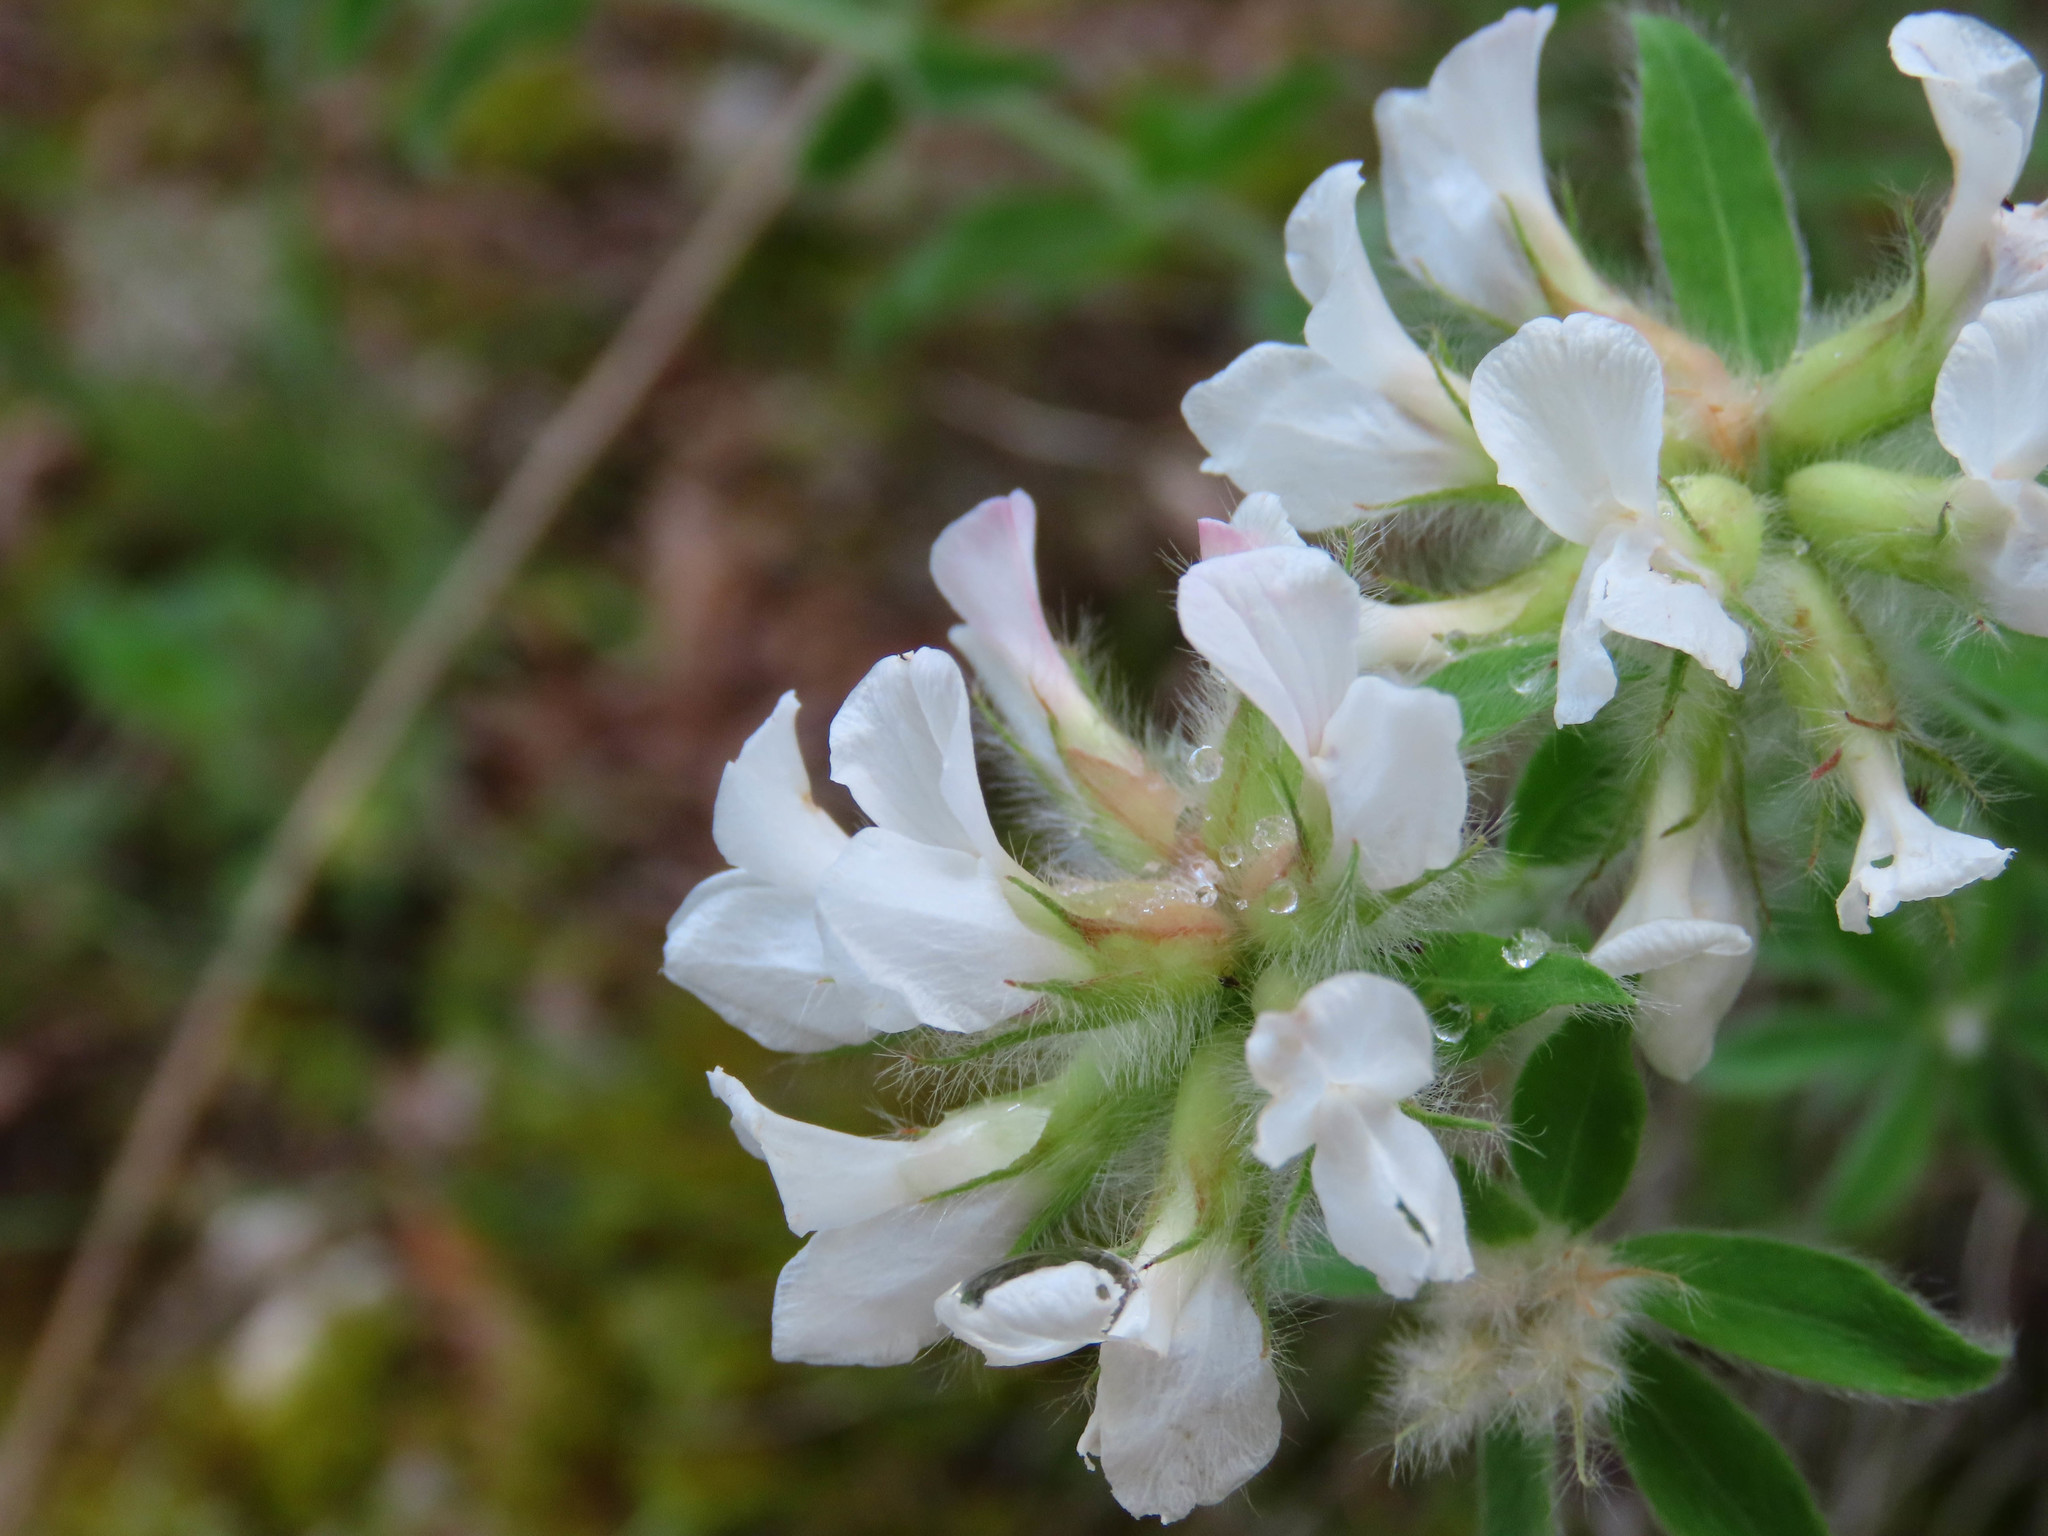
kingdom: Plantae
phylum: Tracheophyta
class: Magnoliopsida
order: Fabales
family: Fabaceae
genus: Lotus
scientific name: Lotus hirsutus
